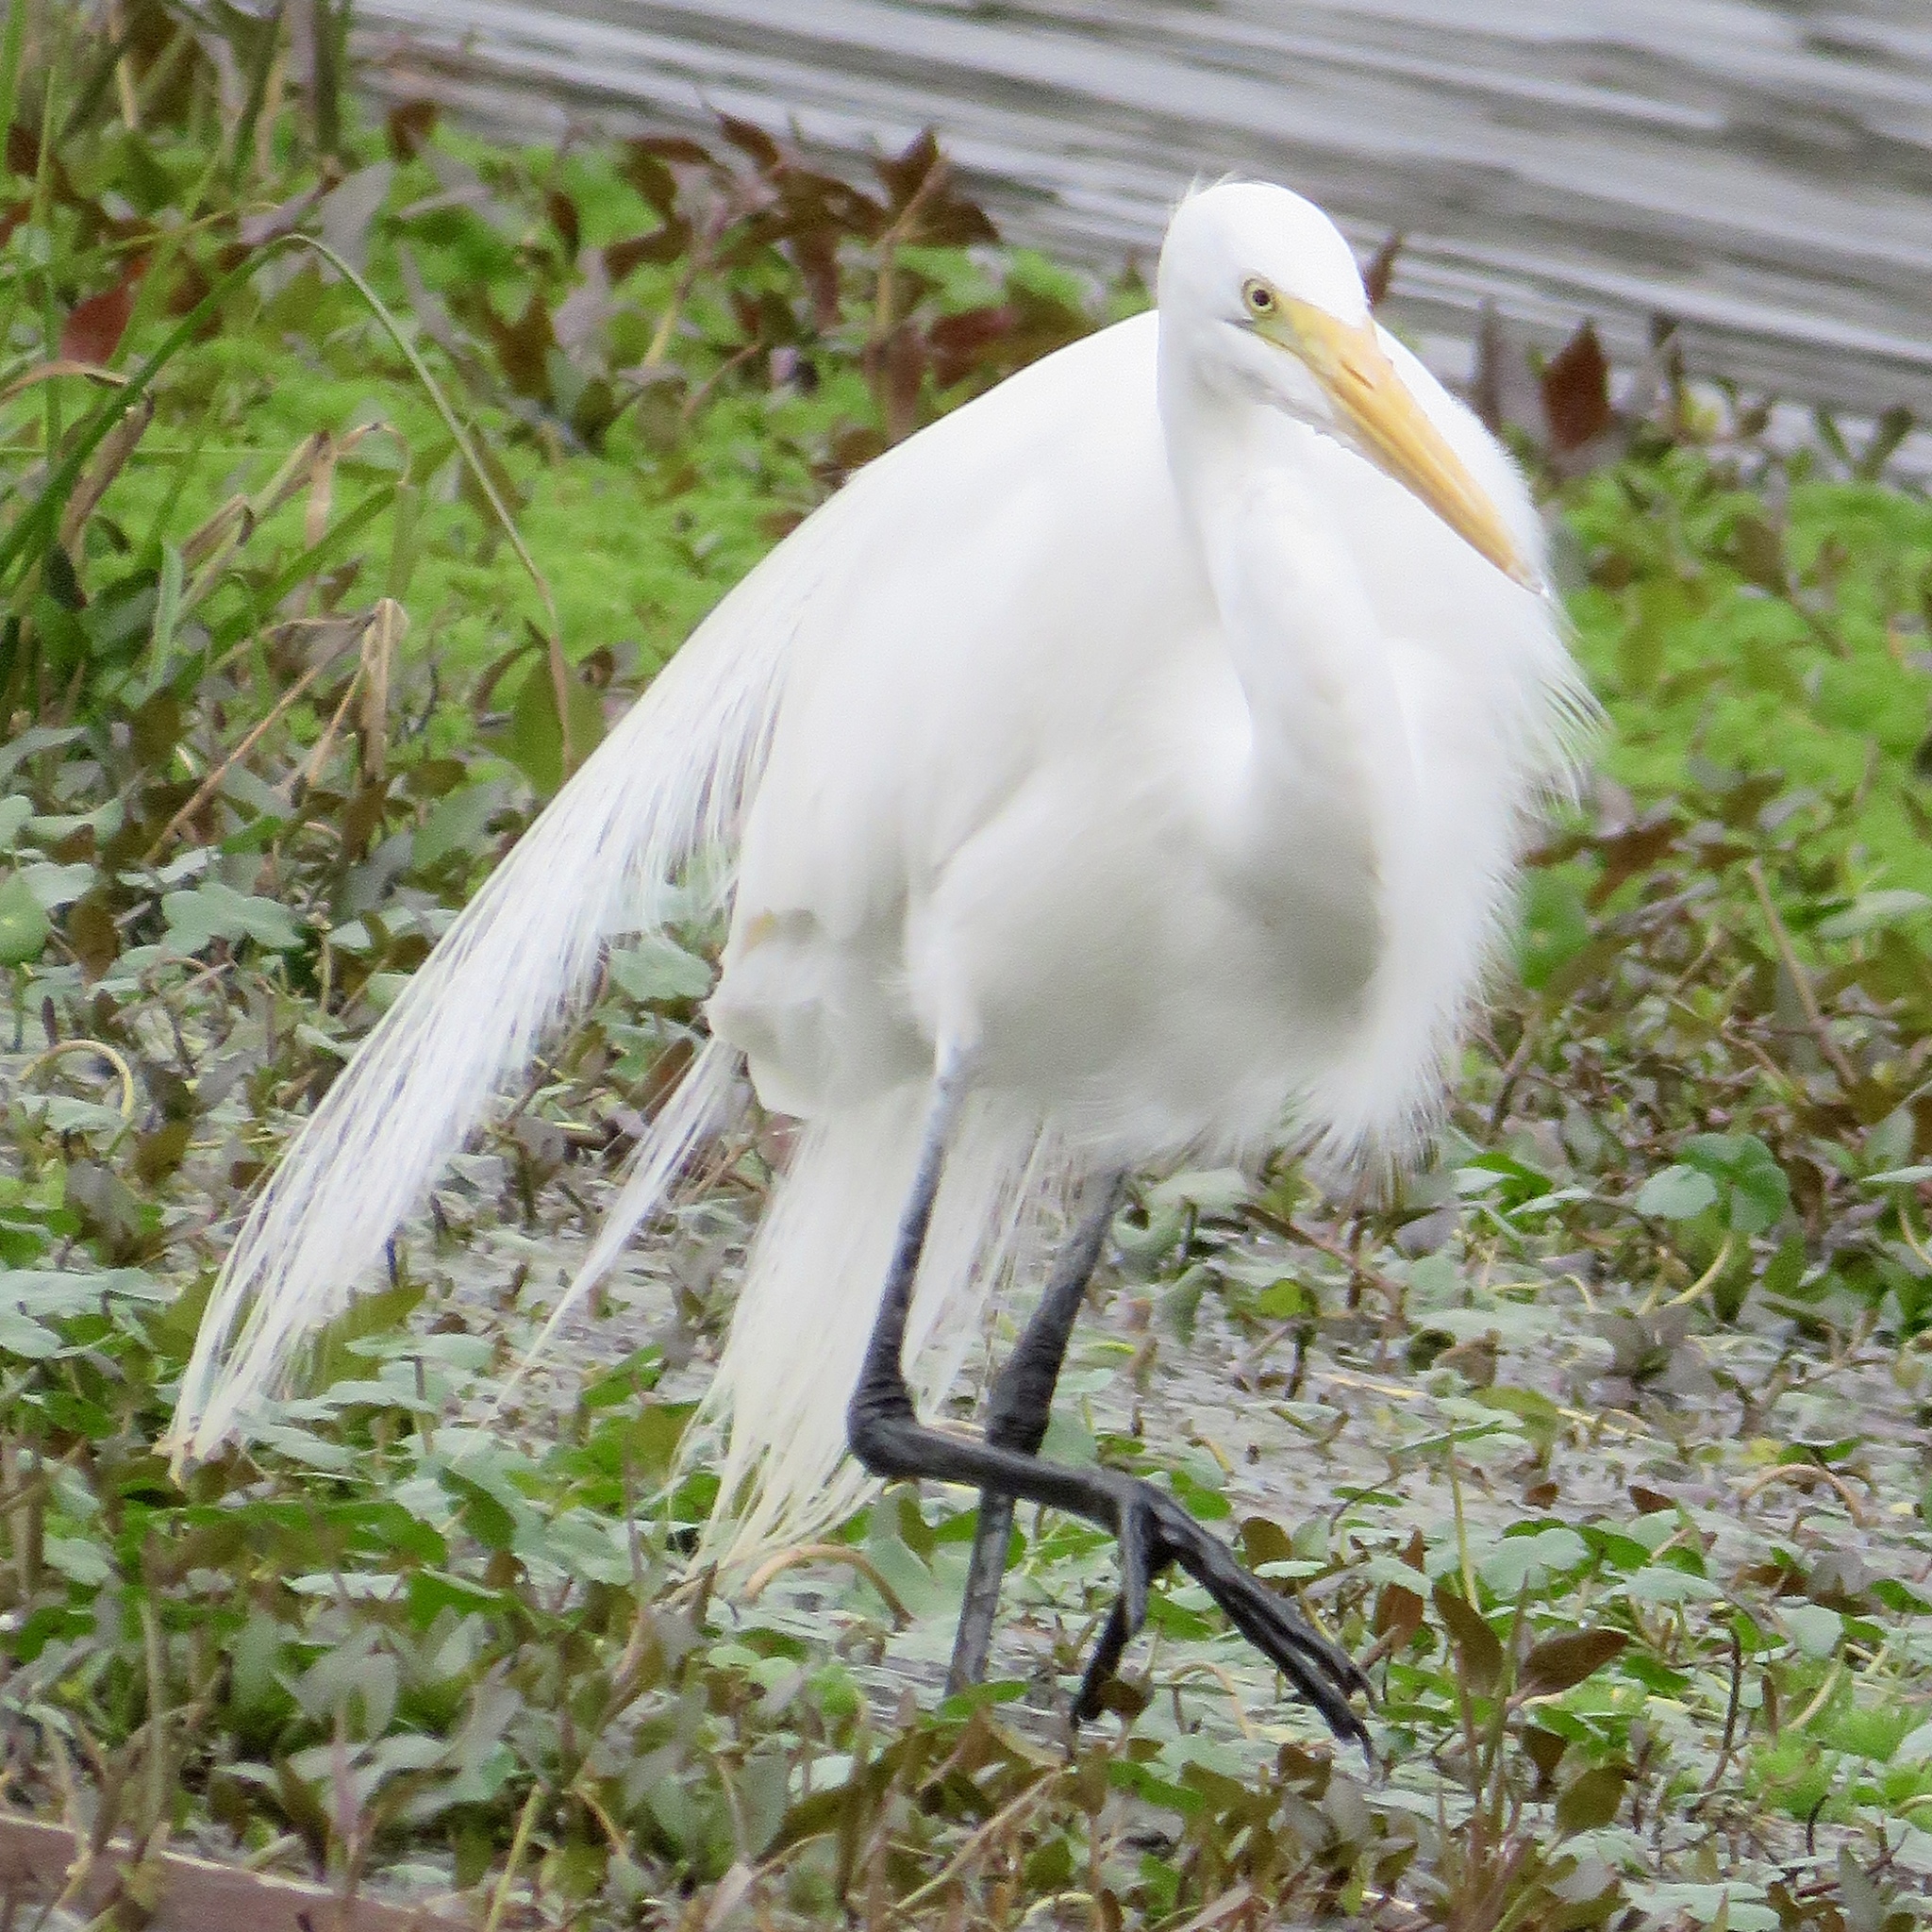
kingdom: Animalia
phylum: Chordata
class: Aves
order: Pelecaniformes
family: Ardeidae
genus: Ardea
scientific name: Ardea alba
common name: Great egret
